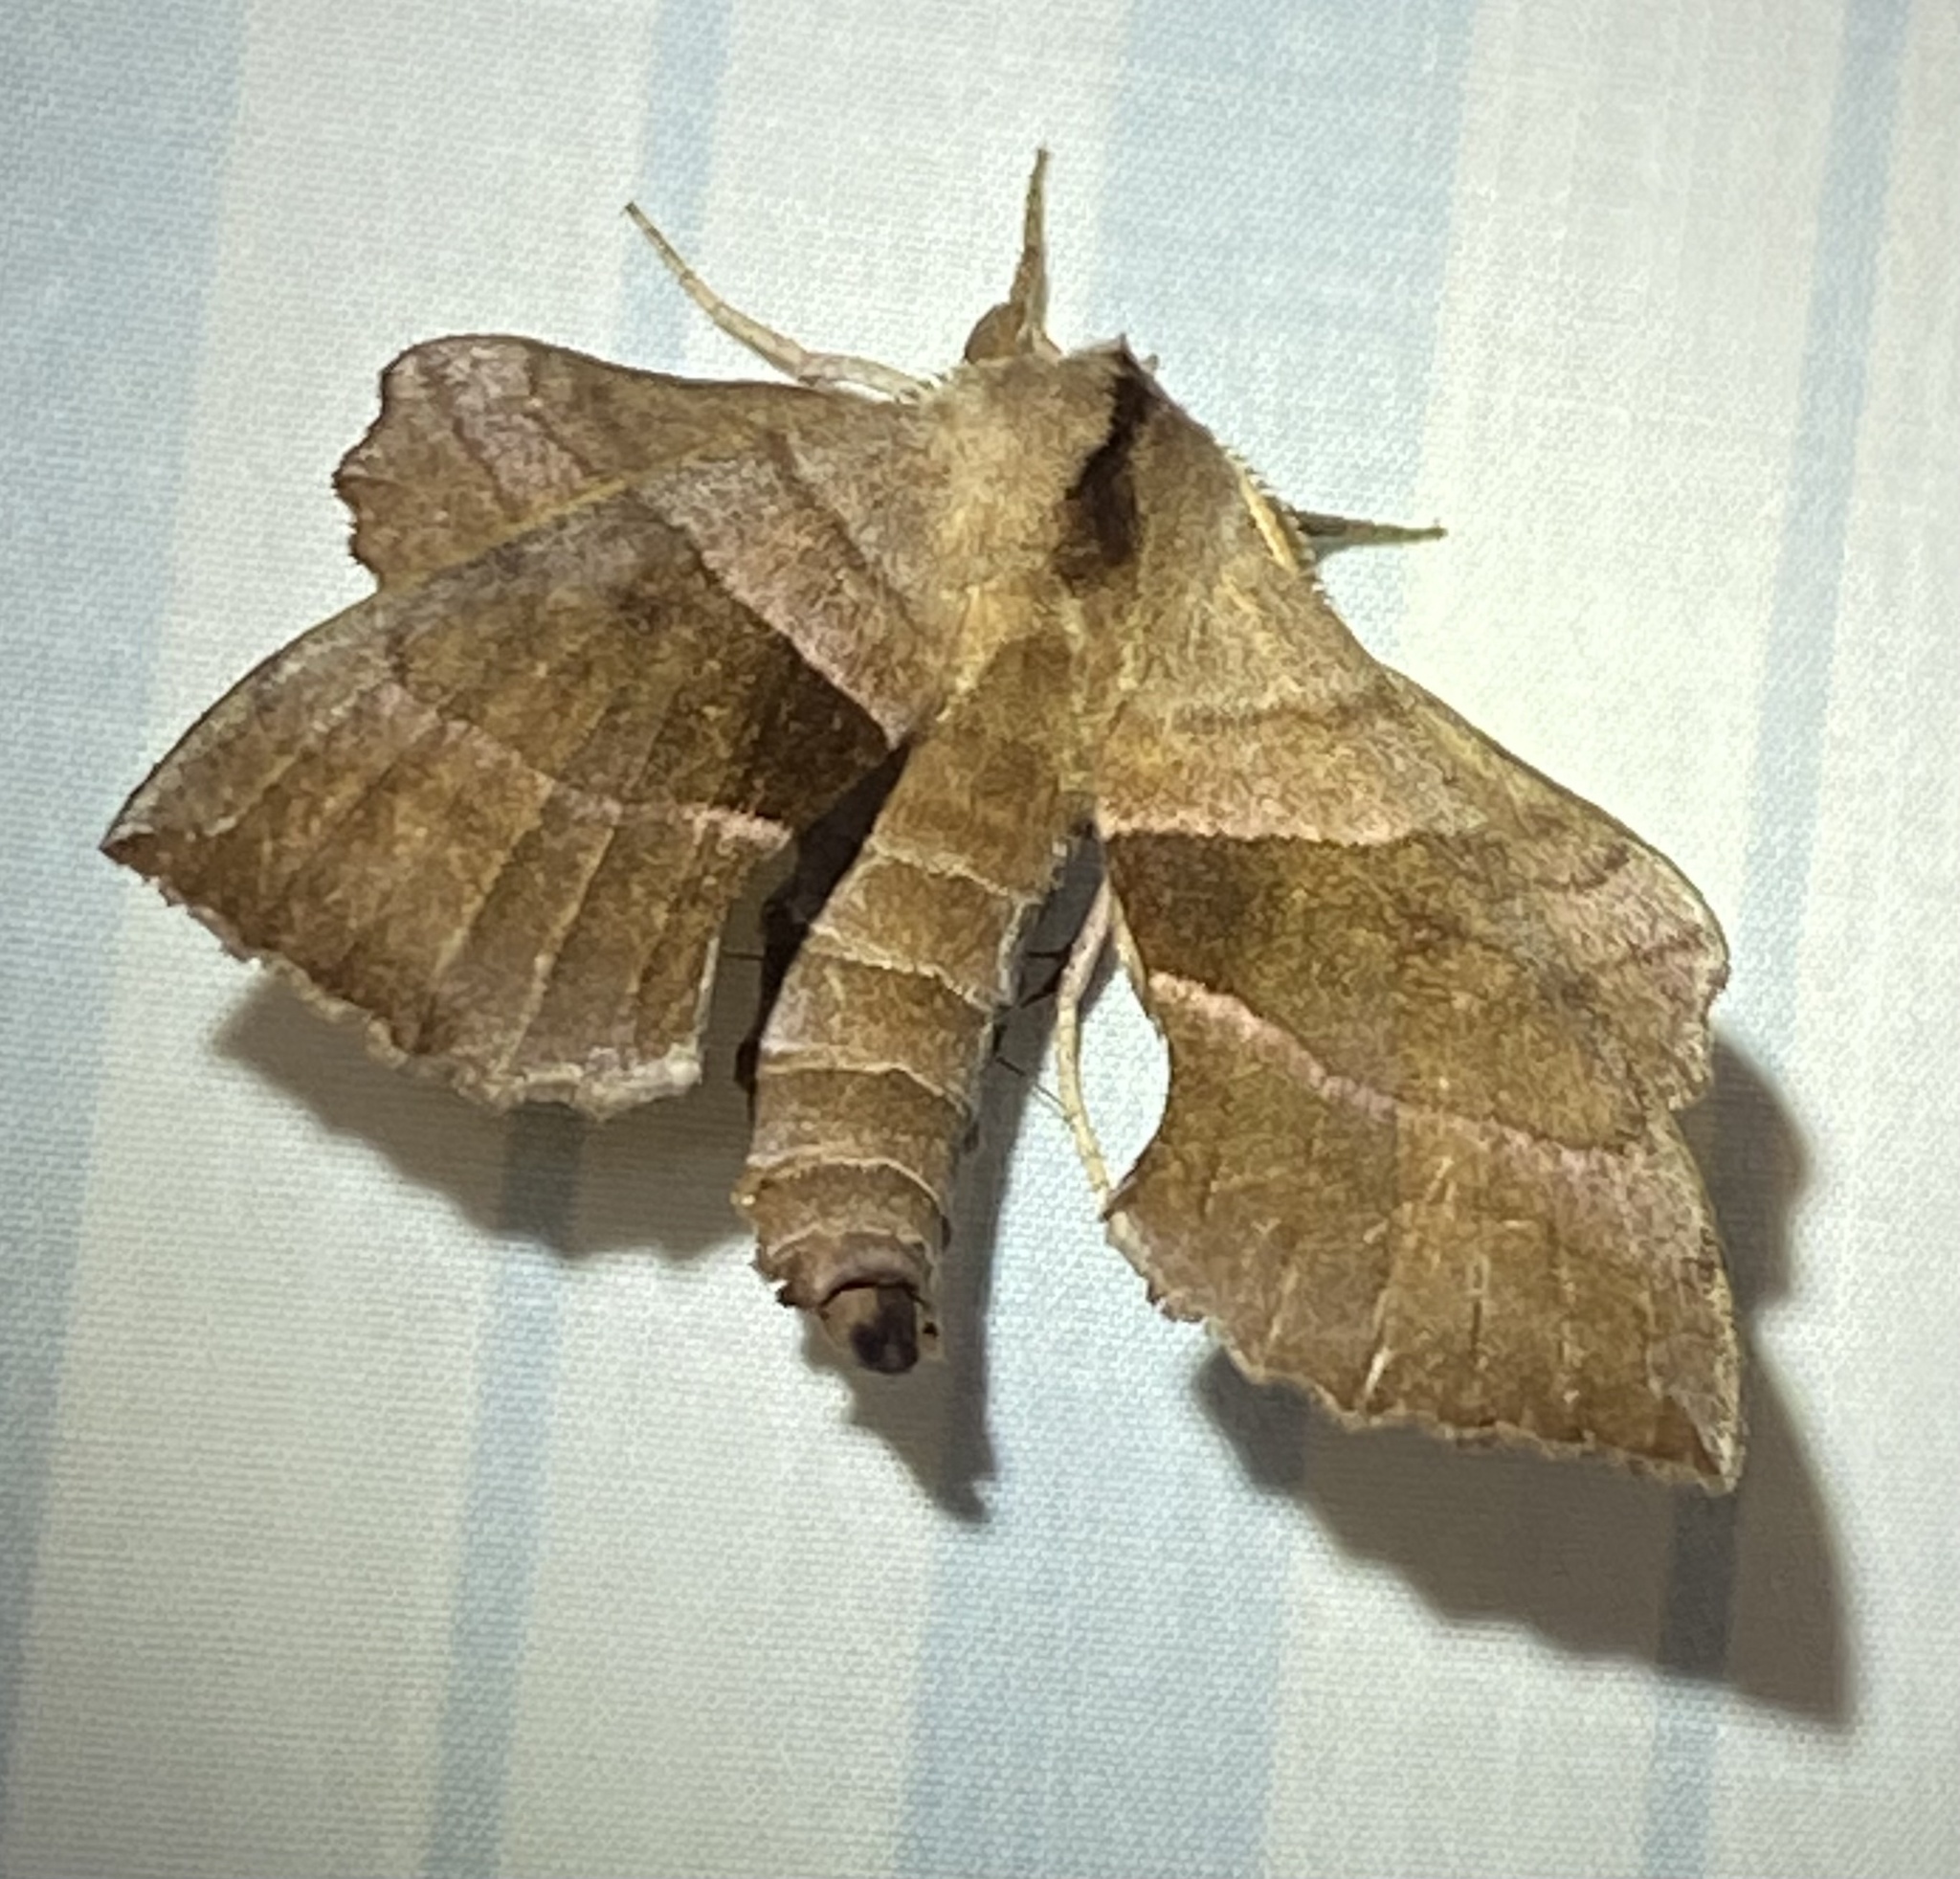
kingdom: Animalia
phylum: Arthropoda
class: Insecta
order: Lepidoptera
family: Sphingidae
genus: Amorpha
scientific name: Amorpha juglandis
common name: Walnut sphinx
